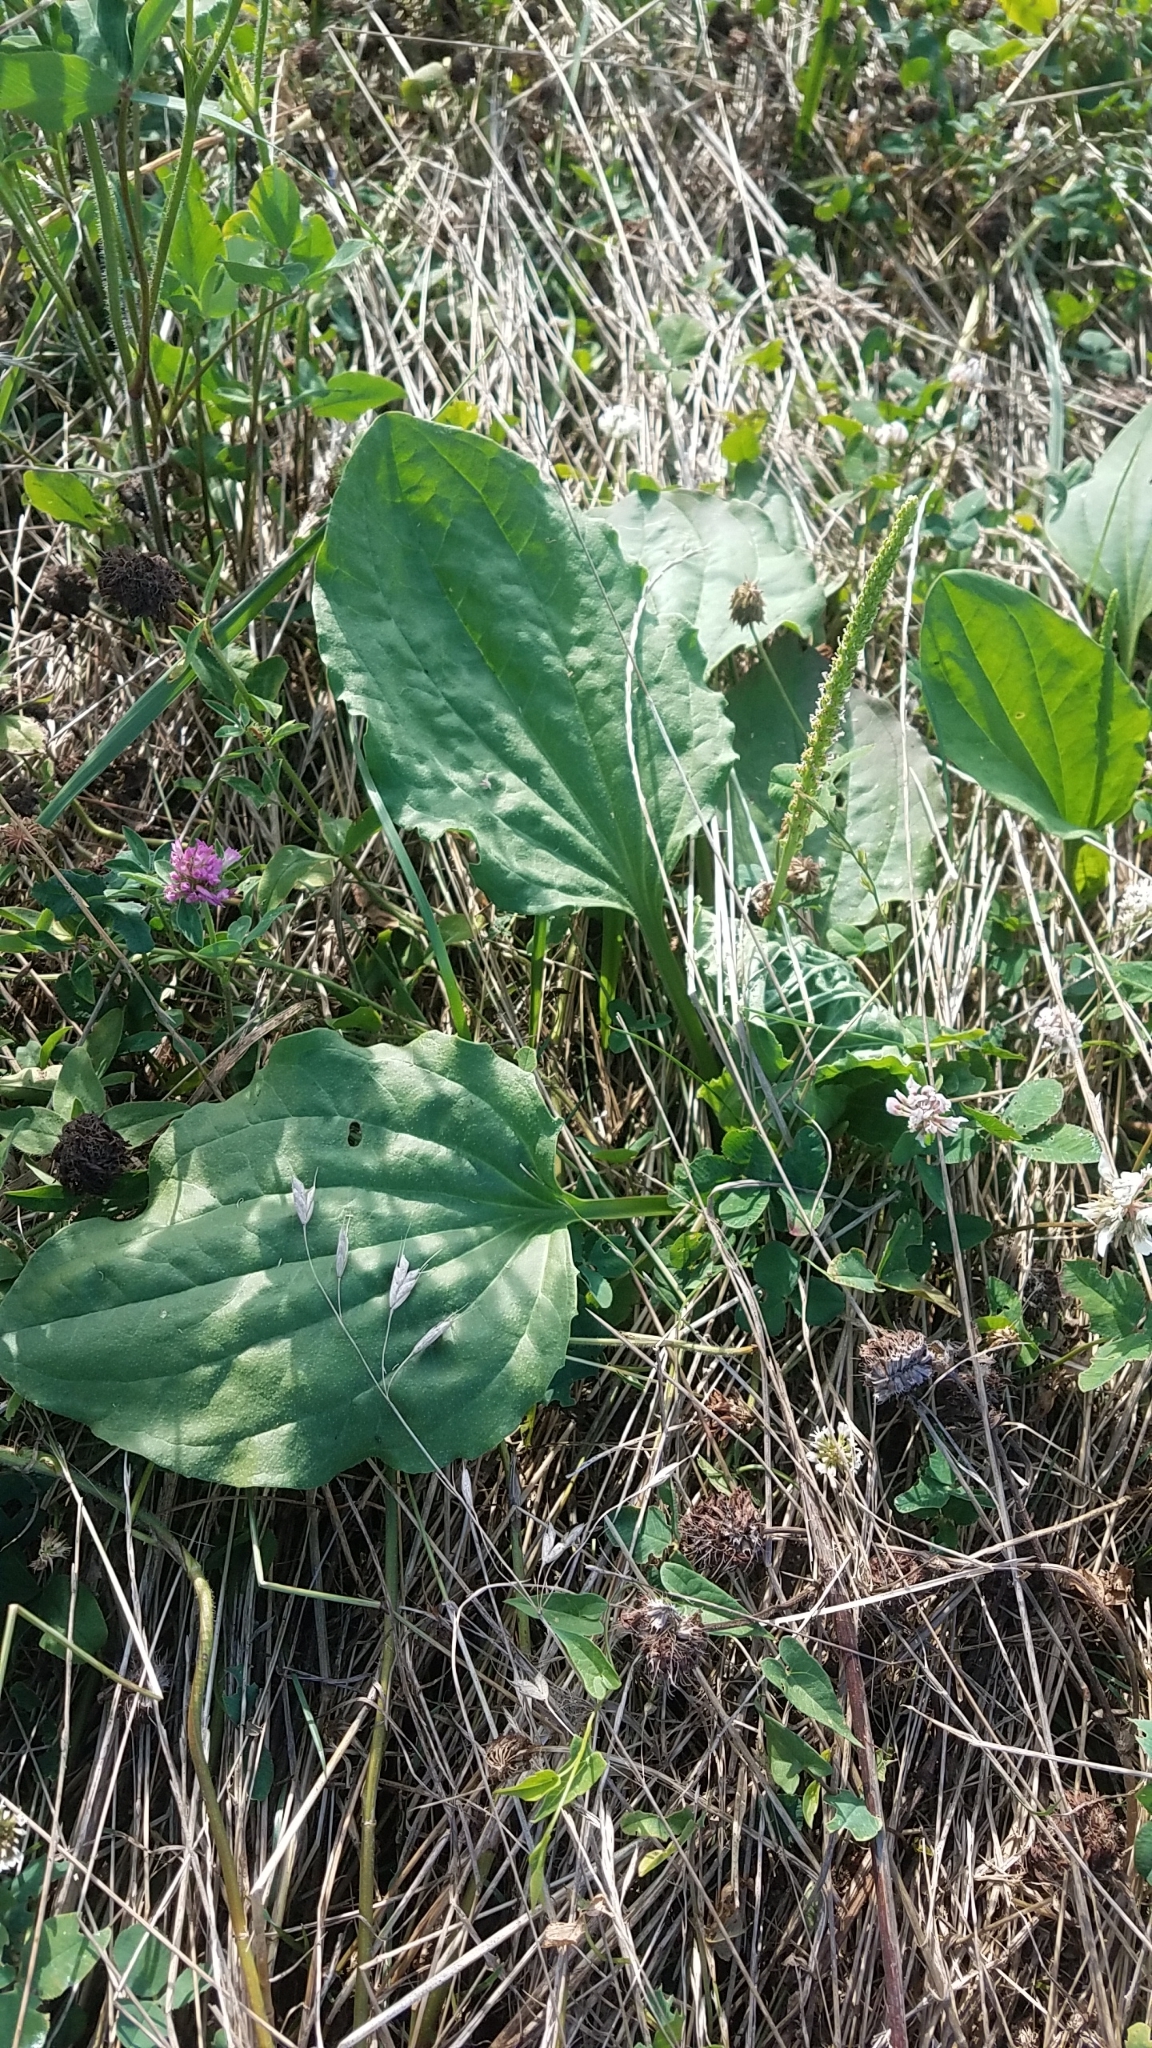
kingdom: Plantae
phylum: Tracheophyta
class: Magnoliopsida
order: Lamiales
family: Plantaginaceae
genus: Plantago
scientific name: Plantago major
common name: Common plantain
